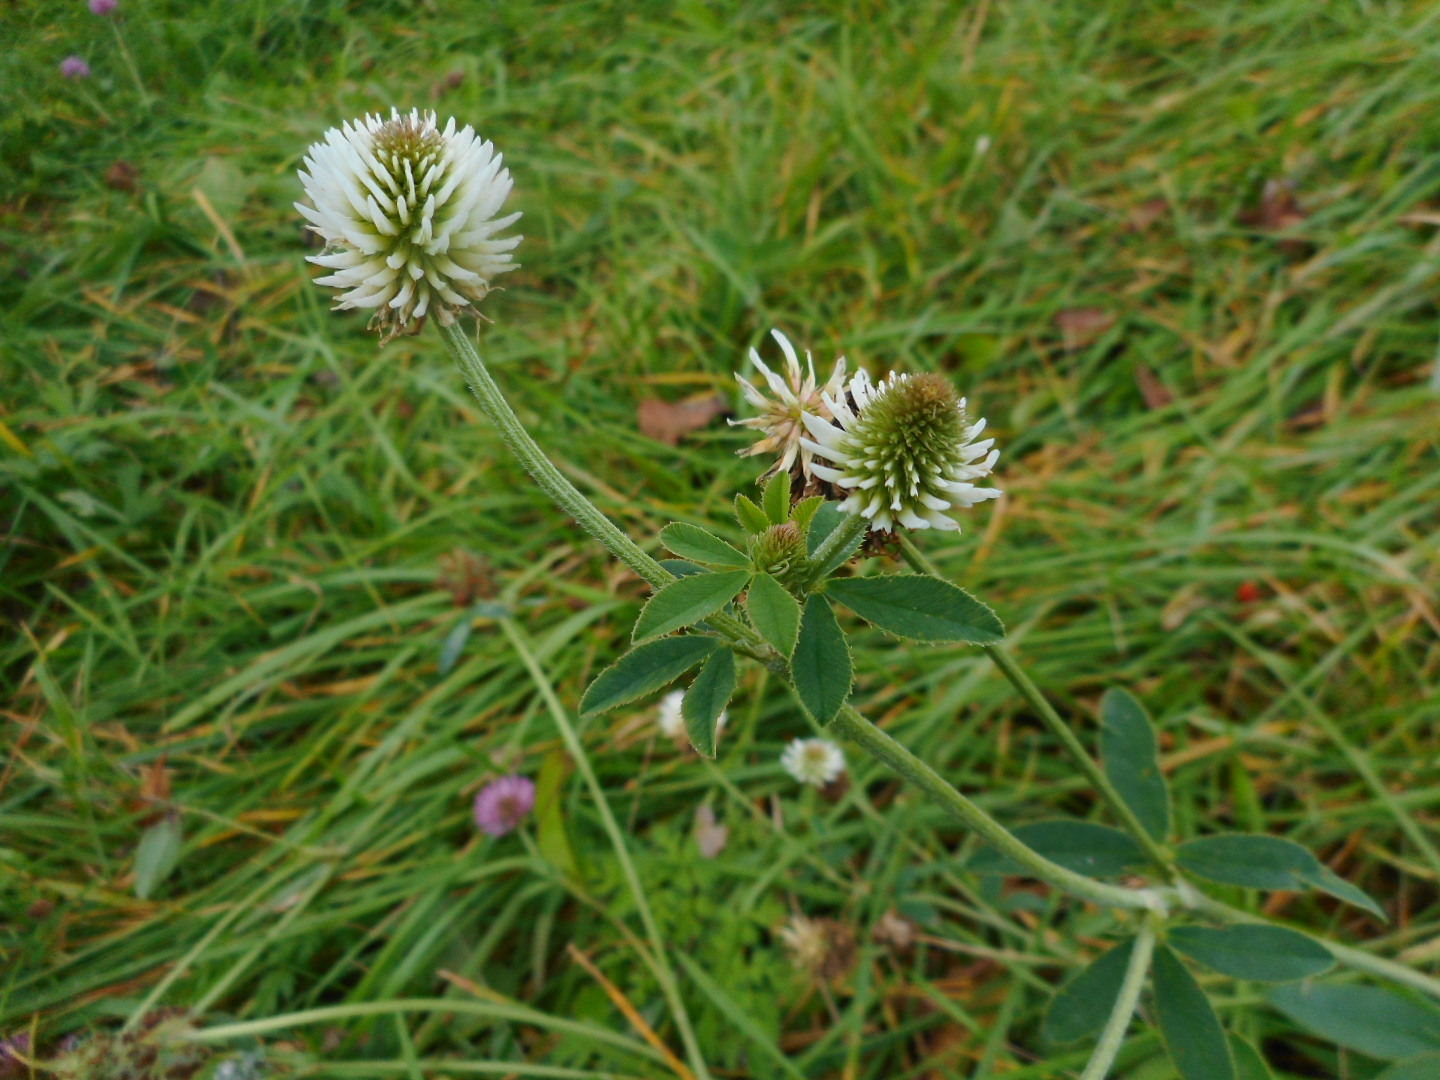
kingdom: Plantae
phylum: Tracheophyta
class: Magnoliopsida
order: Fabales
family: Fabaceae
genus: Trifolium
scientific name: Trifolium montanum
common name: Mountain clover
